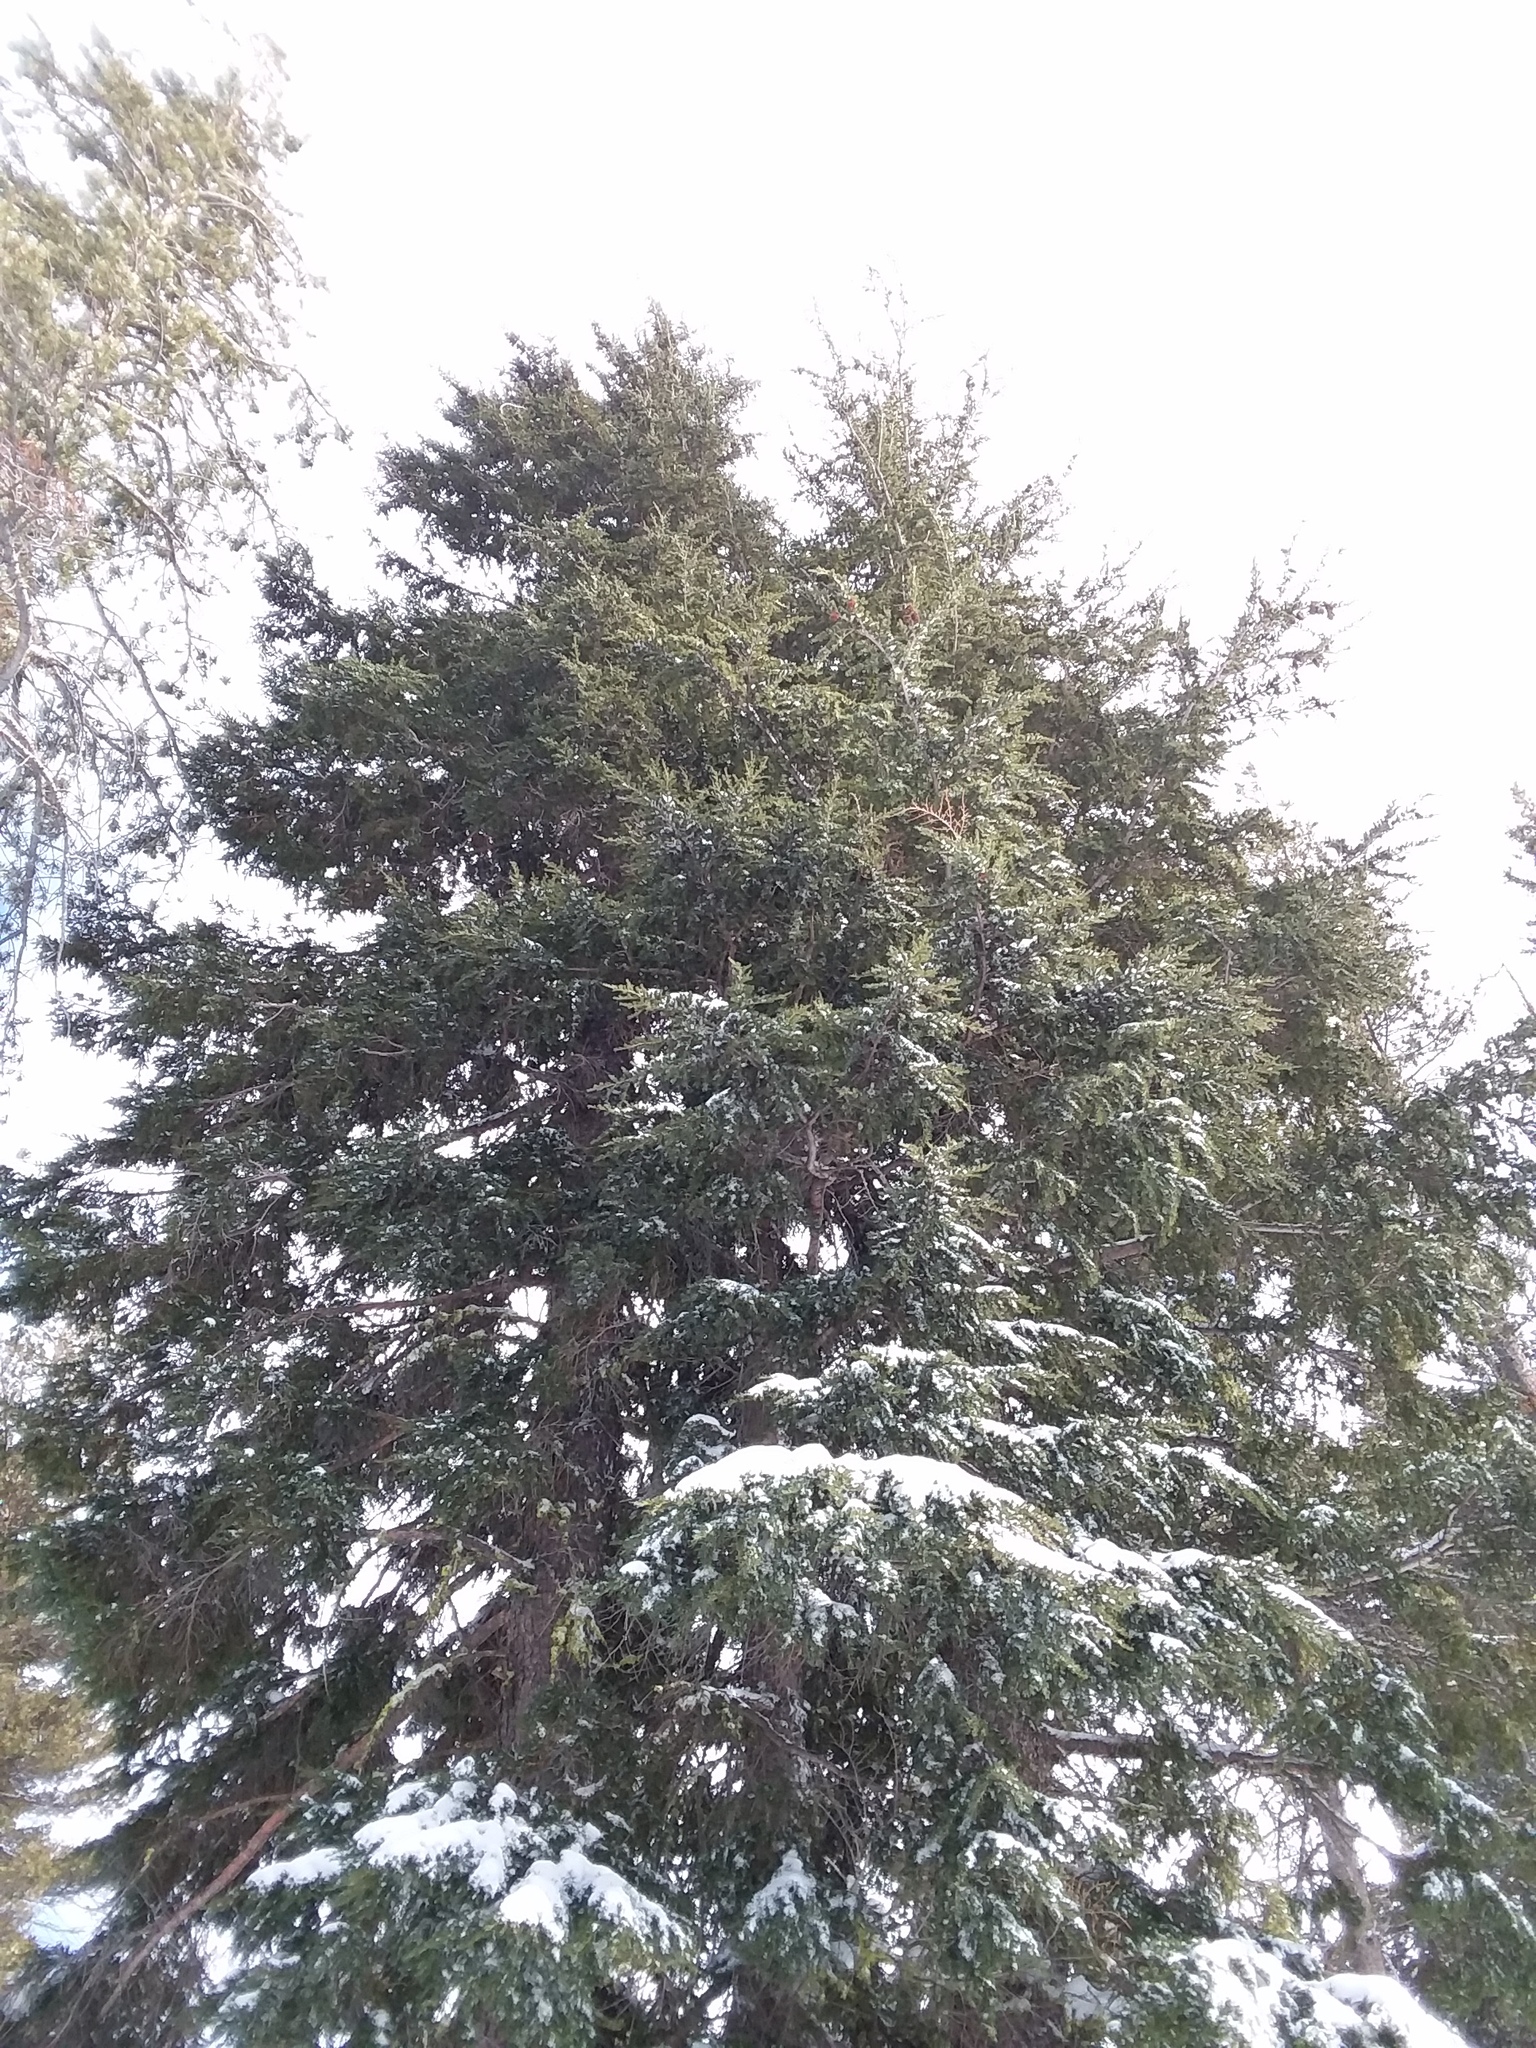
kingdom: Plantae
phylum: Tracheophyta
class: Pinopsida
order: Pinales
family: Pinaceae
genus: Tsuga
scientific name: Tsuga mertensiana
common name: Mountain hemlock
